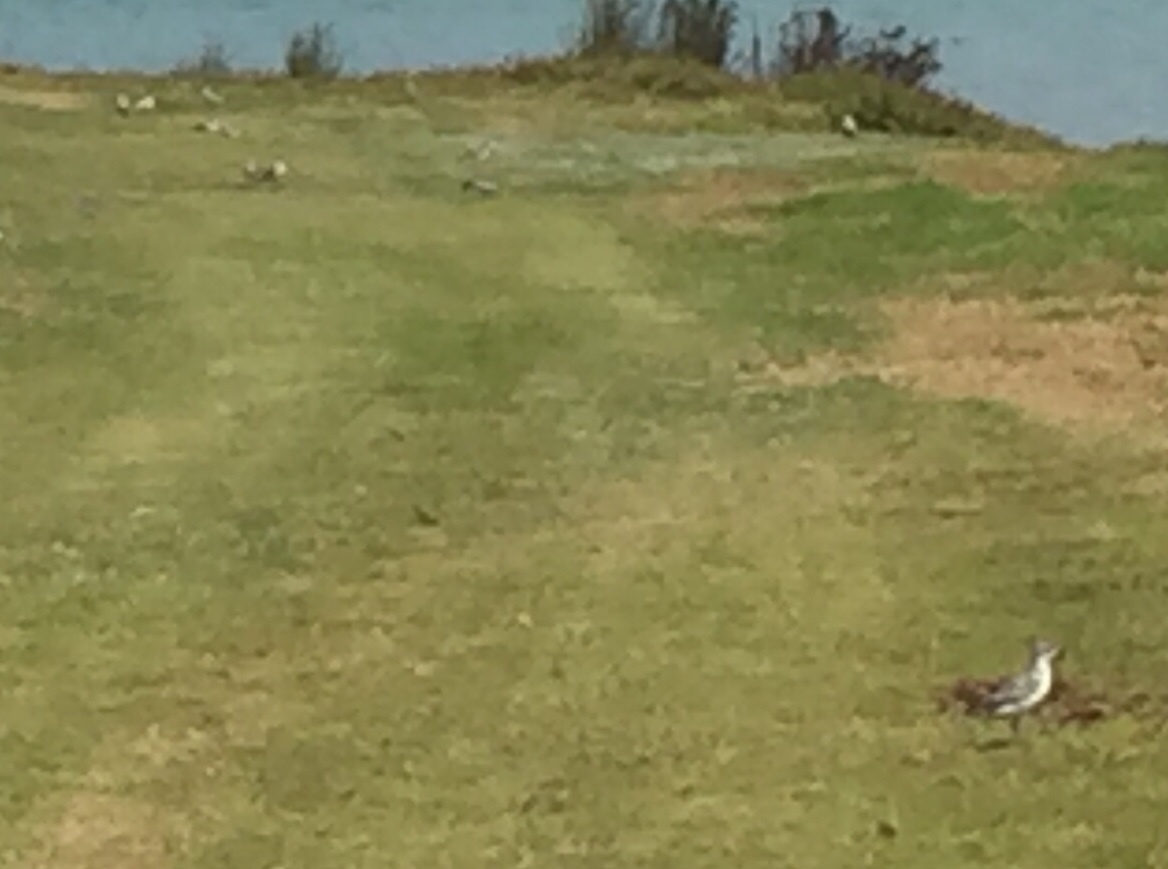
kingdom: Animalia
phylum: Chordata
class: Aves
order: Charadriiformes
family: Charadriidae
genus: Anarhynchus
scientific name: Anarhynchus
